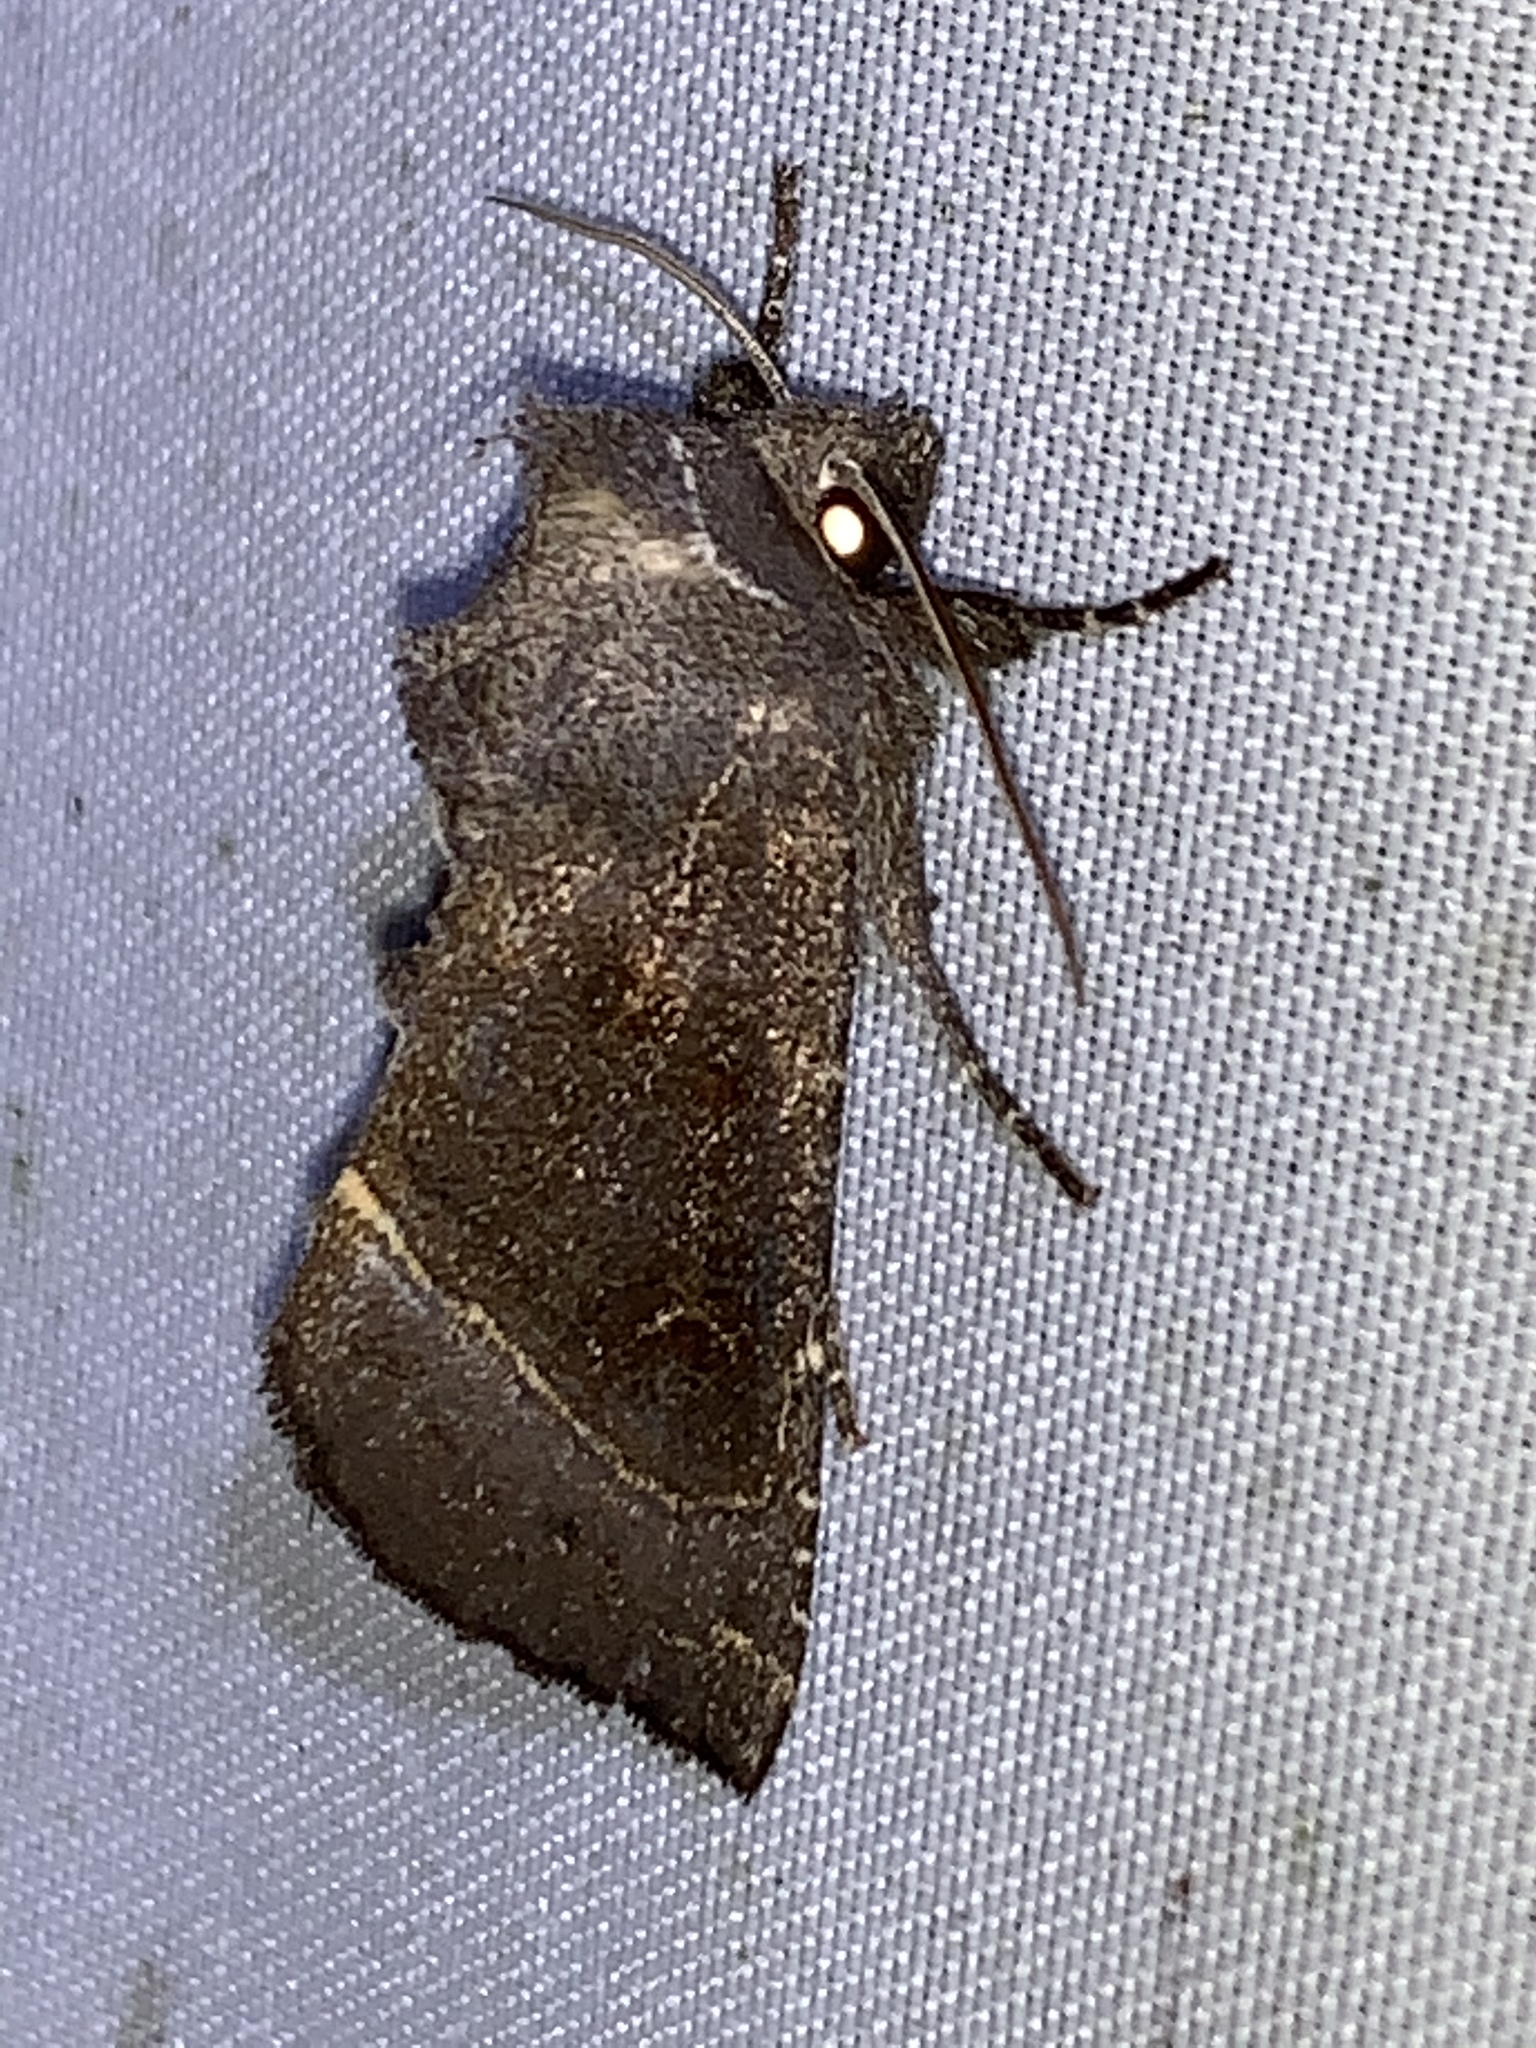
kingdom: Animalia
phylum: Arthropoda
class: Insecta
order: Lepidoptera
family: Noctuidae
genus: Papaipema
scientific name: Papaipema nebris
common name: Stalk borer
